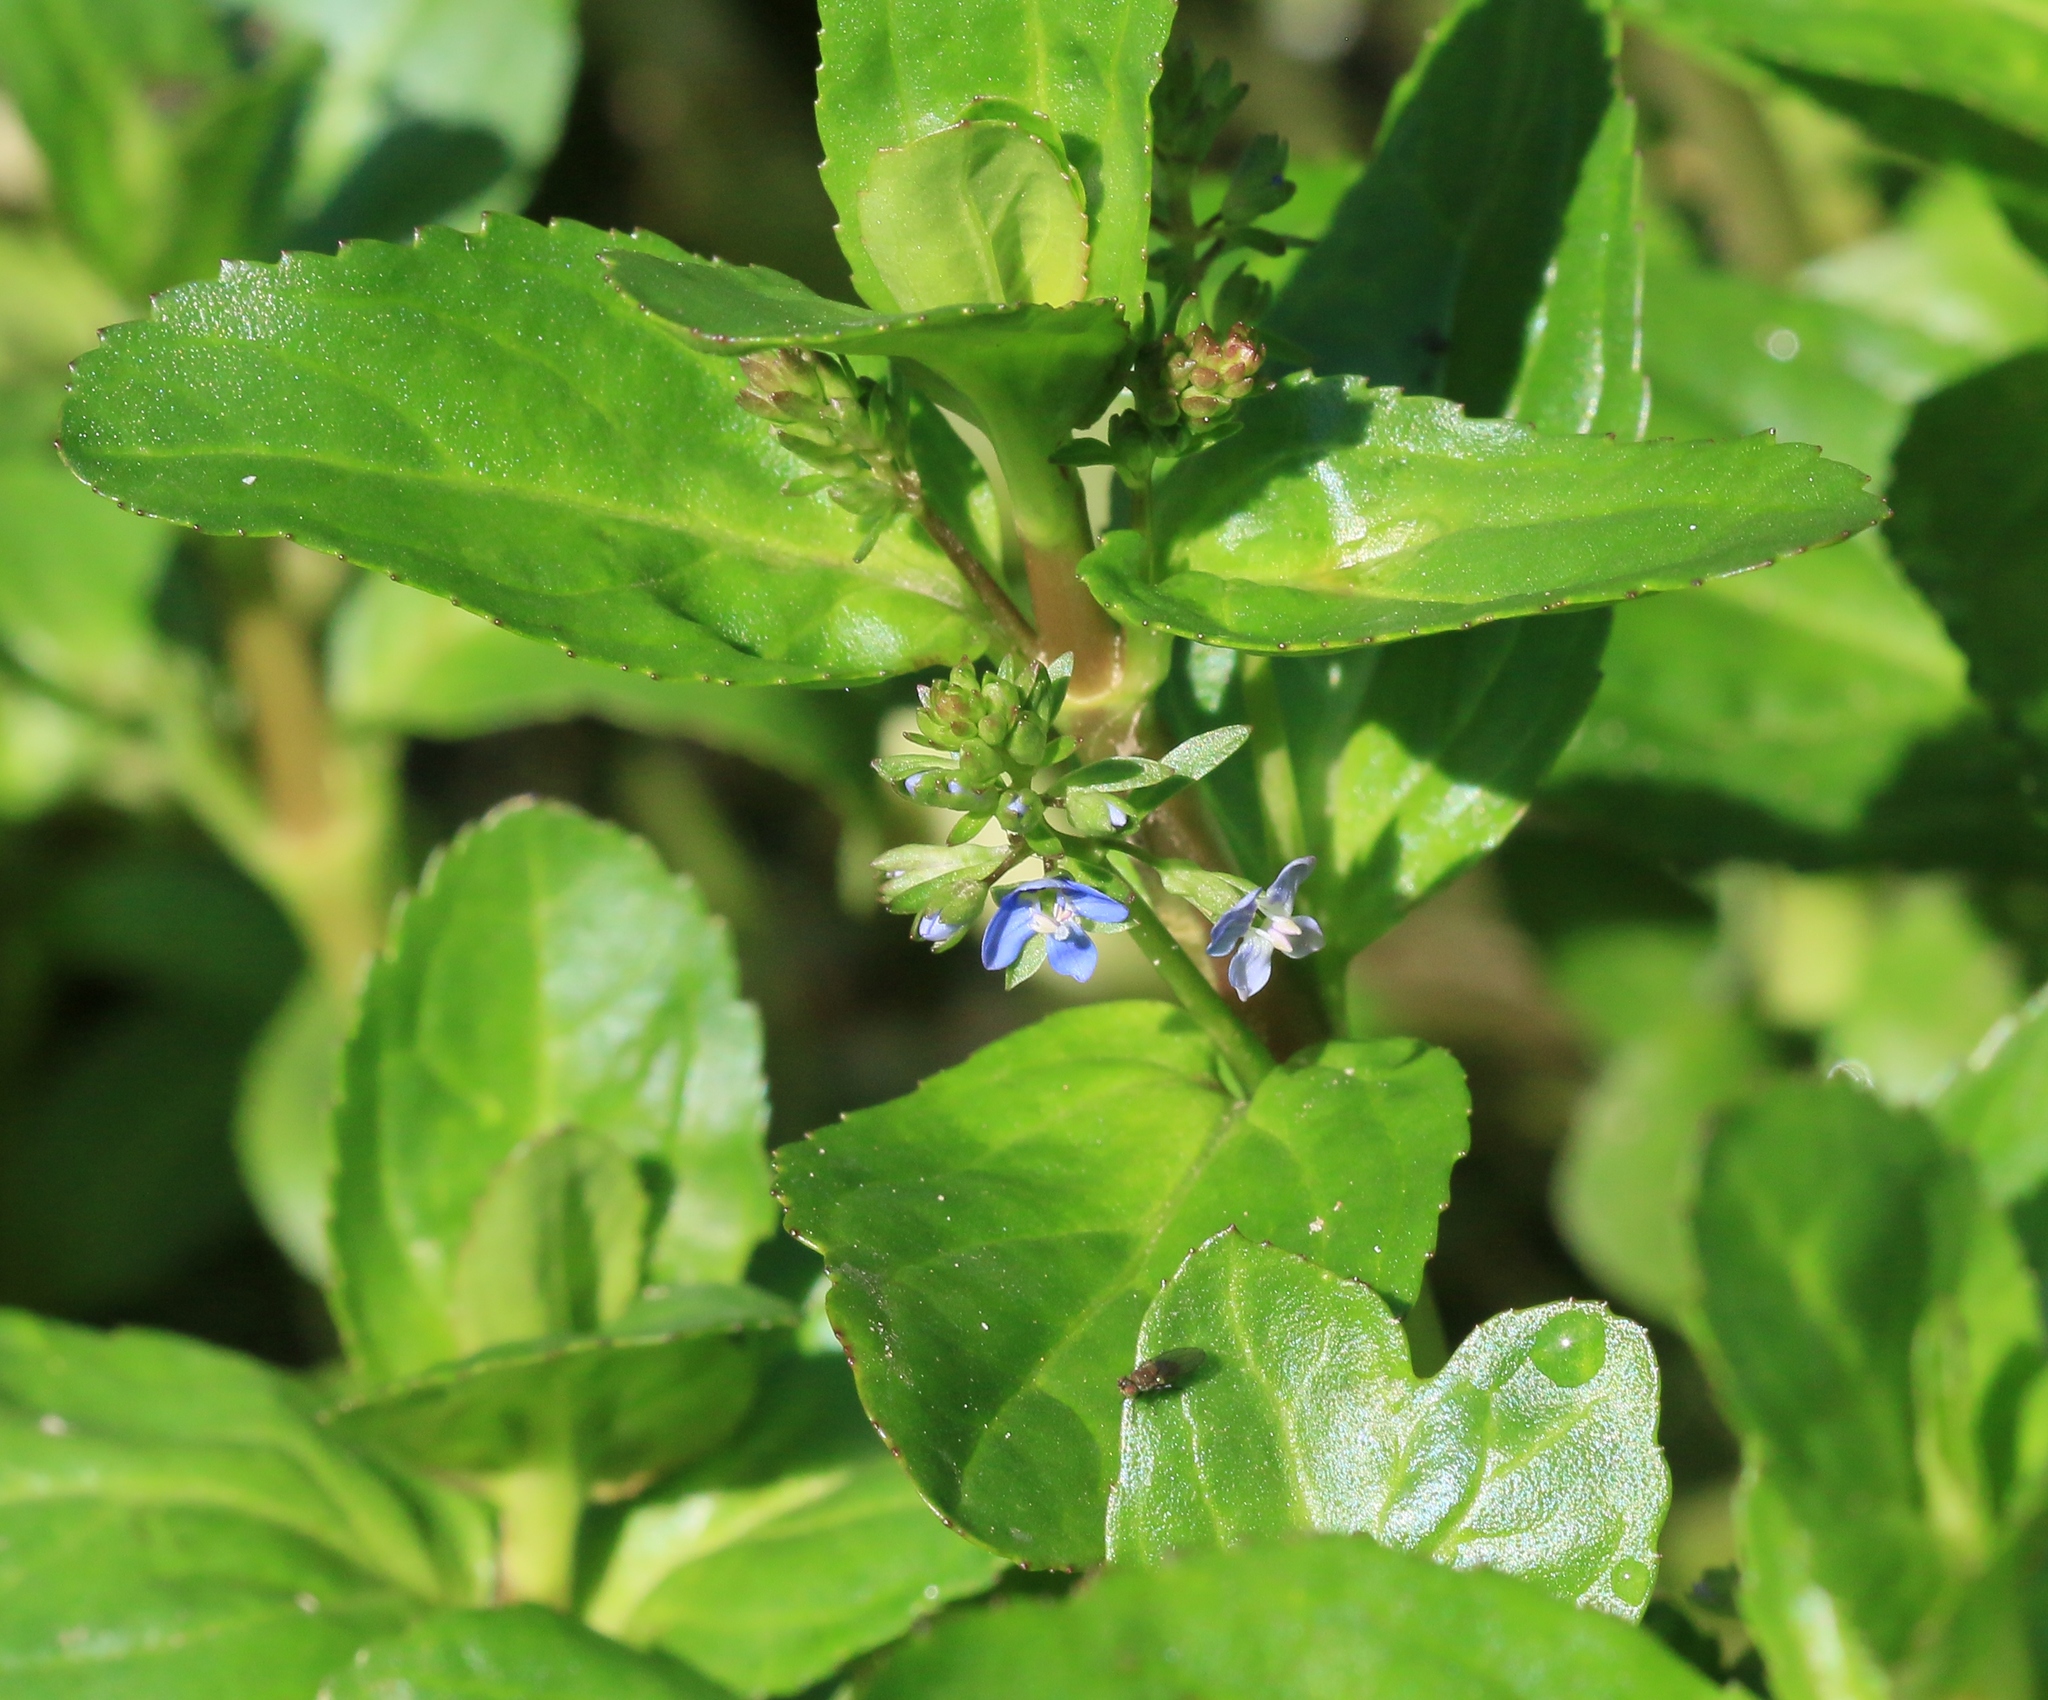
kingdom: Plantae
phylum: Tracheophyta
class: Magnoliopsida
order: Lamiales
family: Plantaginaceae
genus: Veronica
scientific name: Veronica beccabunga
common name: Brooklime
